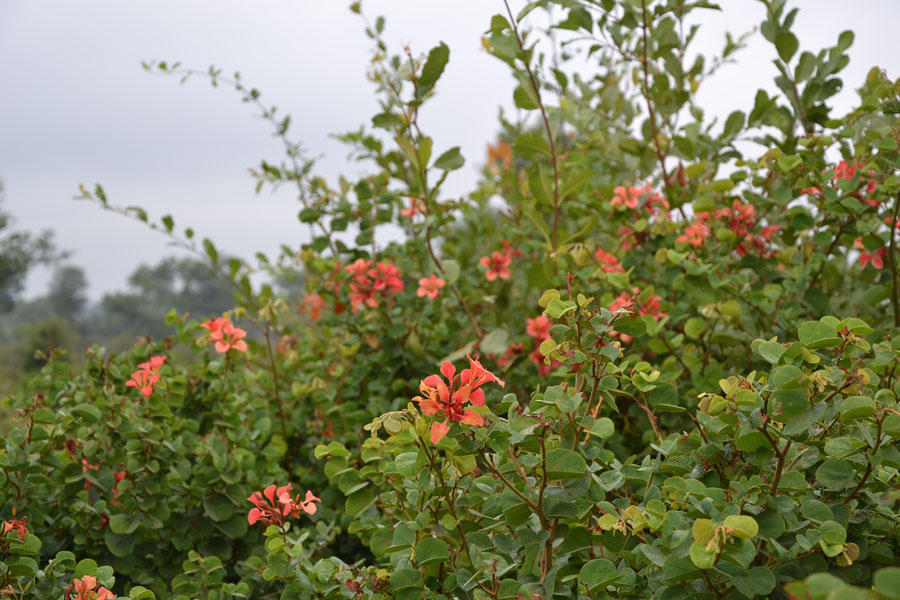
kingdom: Plantae
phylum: Tracheophyta
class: Magnoliopsida
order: Fabales
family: Fabaceae
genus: Bauhinia
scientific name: Bauhinia galpinii
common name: African plume
